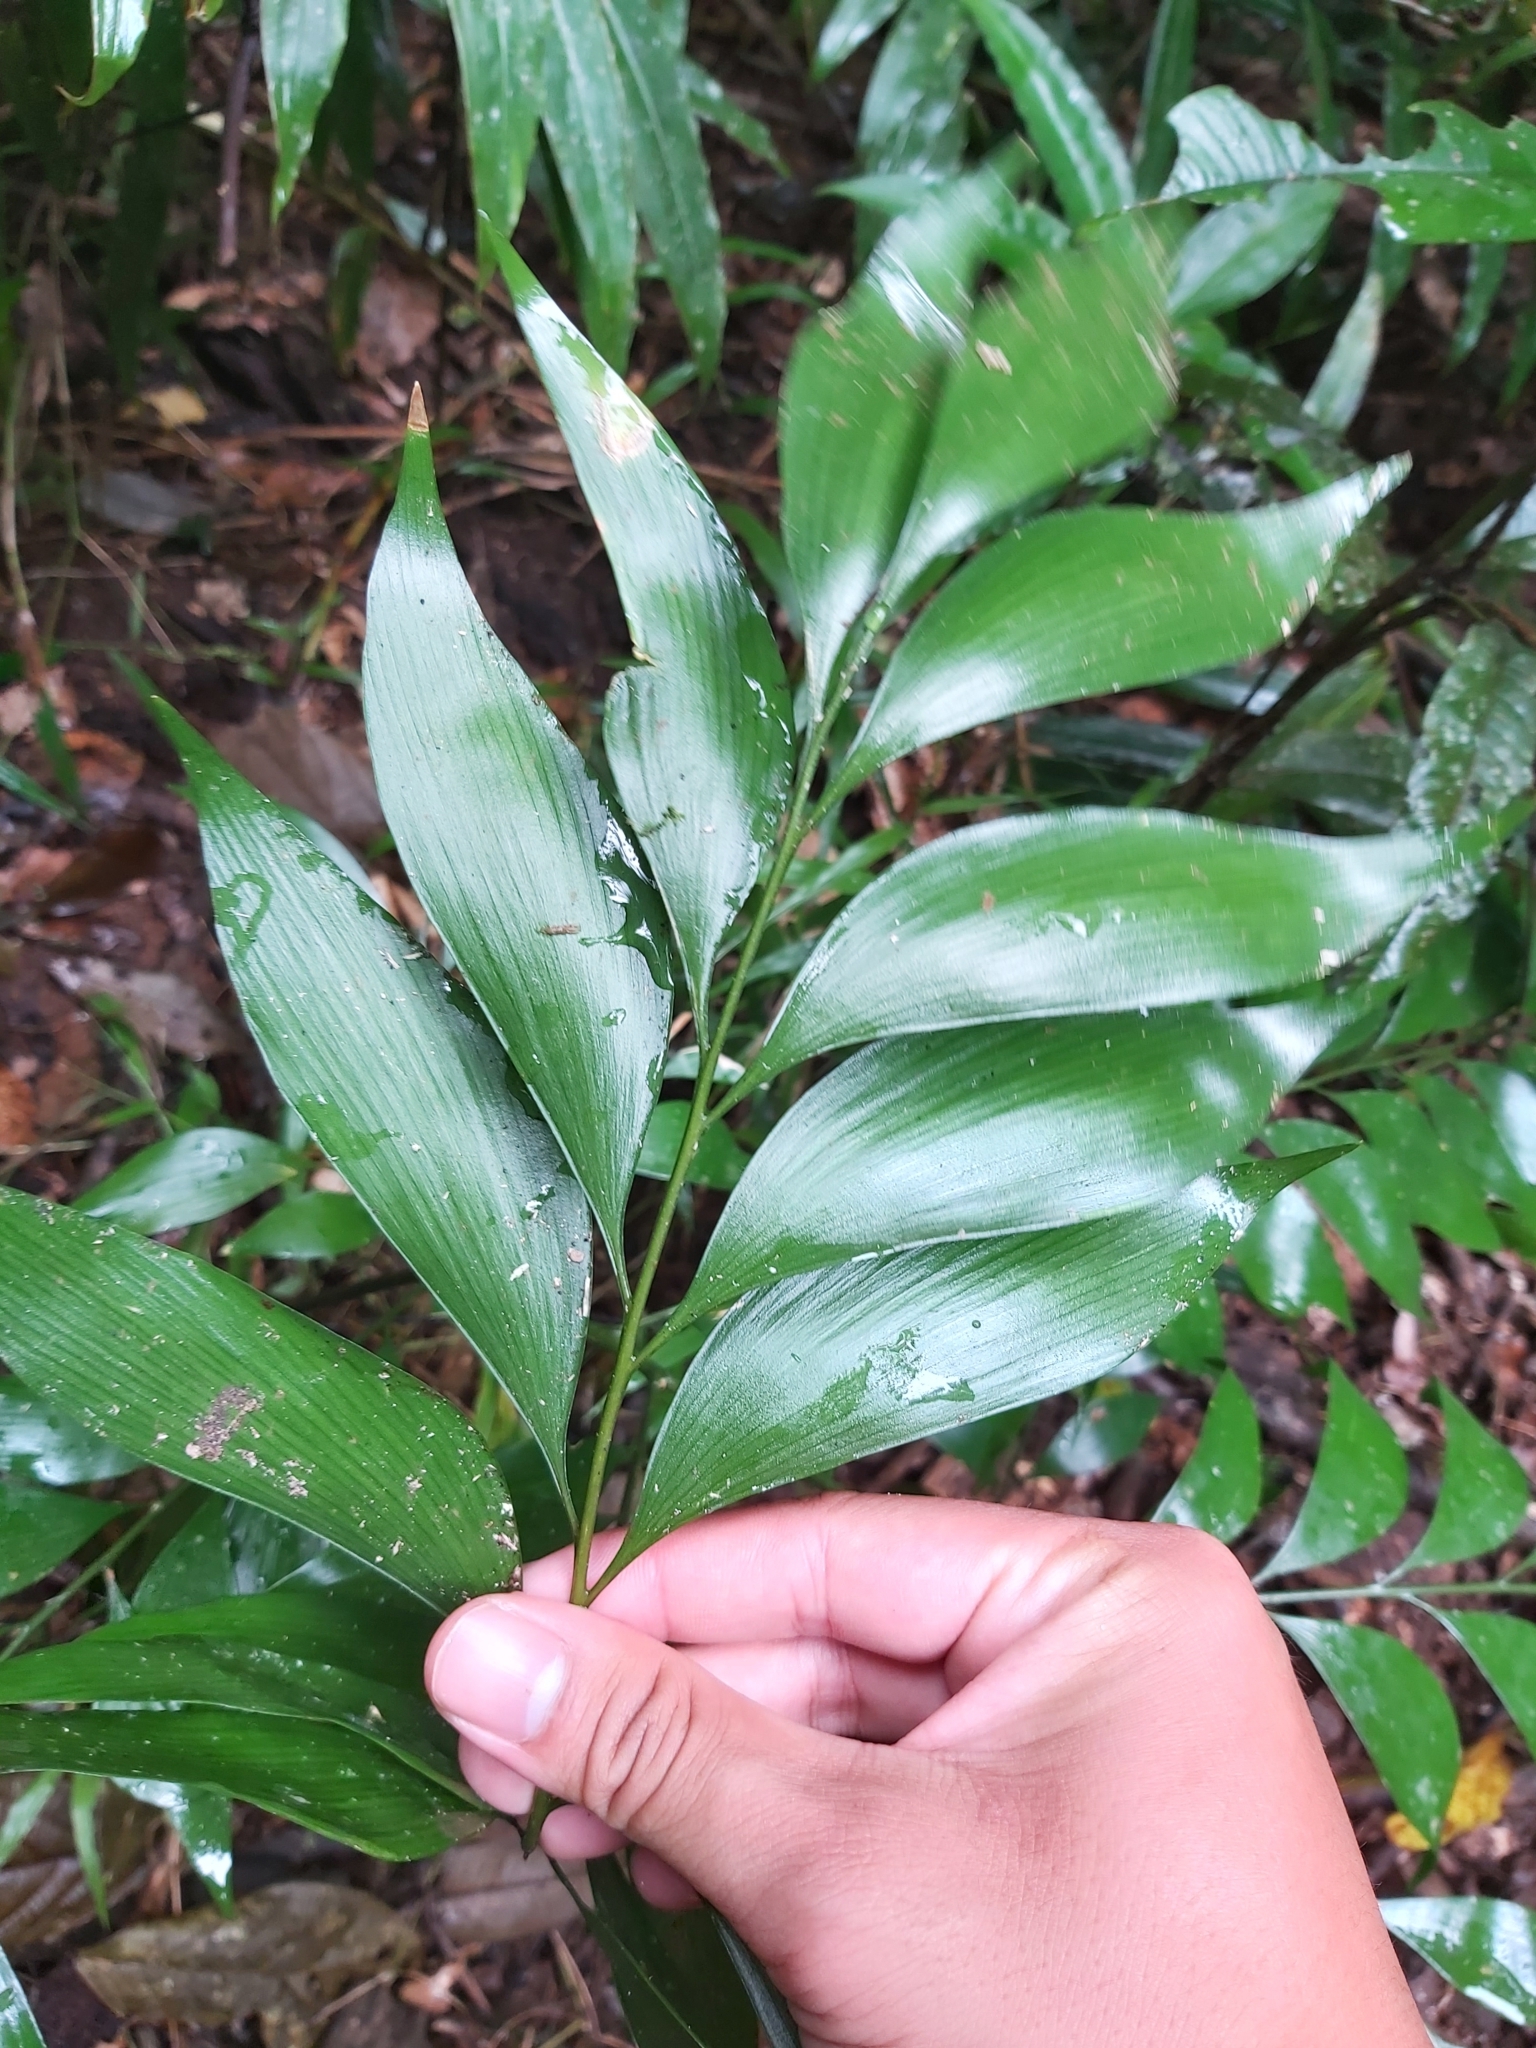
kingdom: Plantae
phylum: Tracheophyta
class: Cycadopsida
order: Cycadales
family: Zamiaceae
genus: Bowenia
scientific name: Bowenia spectabilis
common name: Zamia-fern
